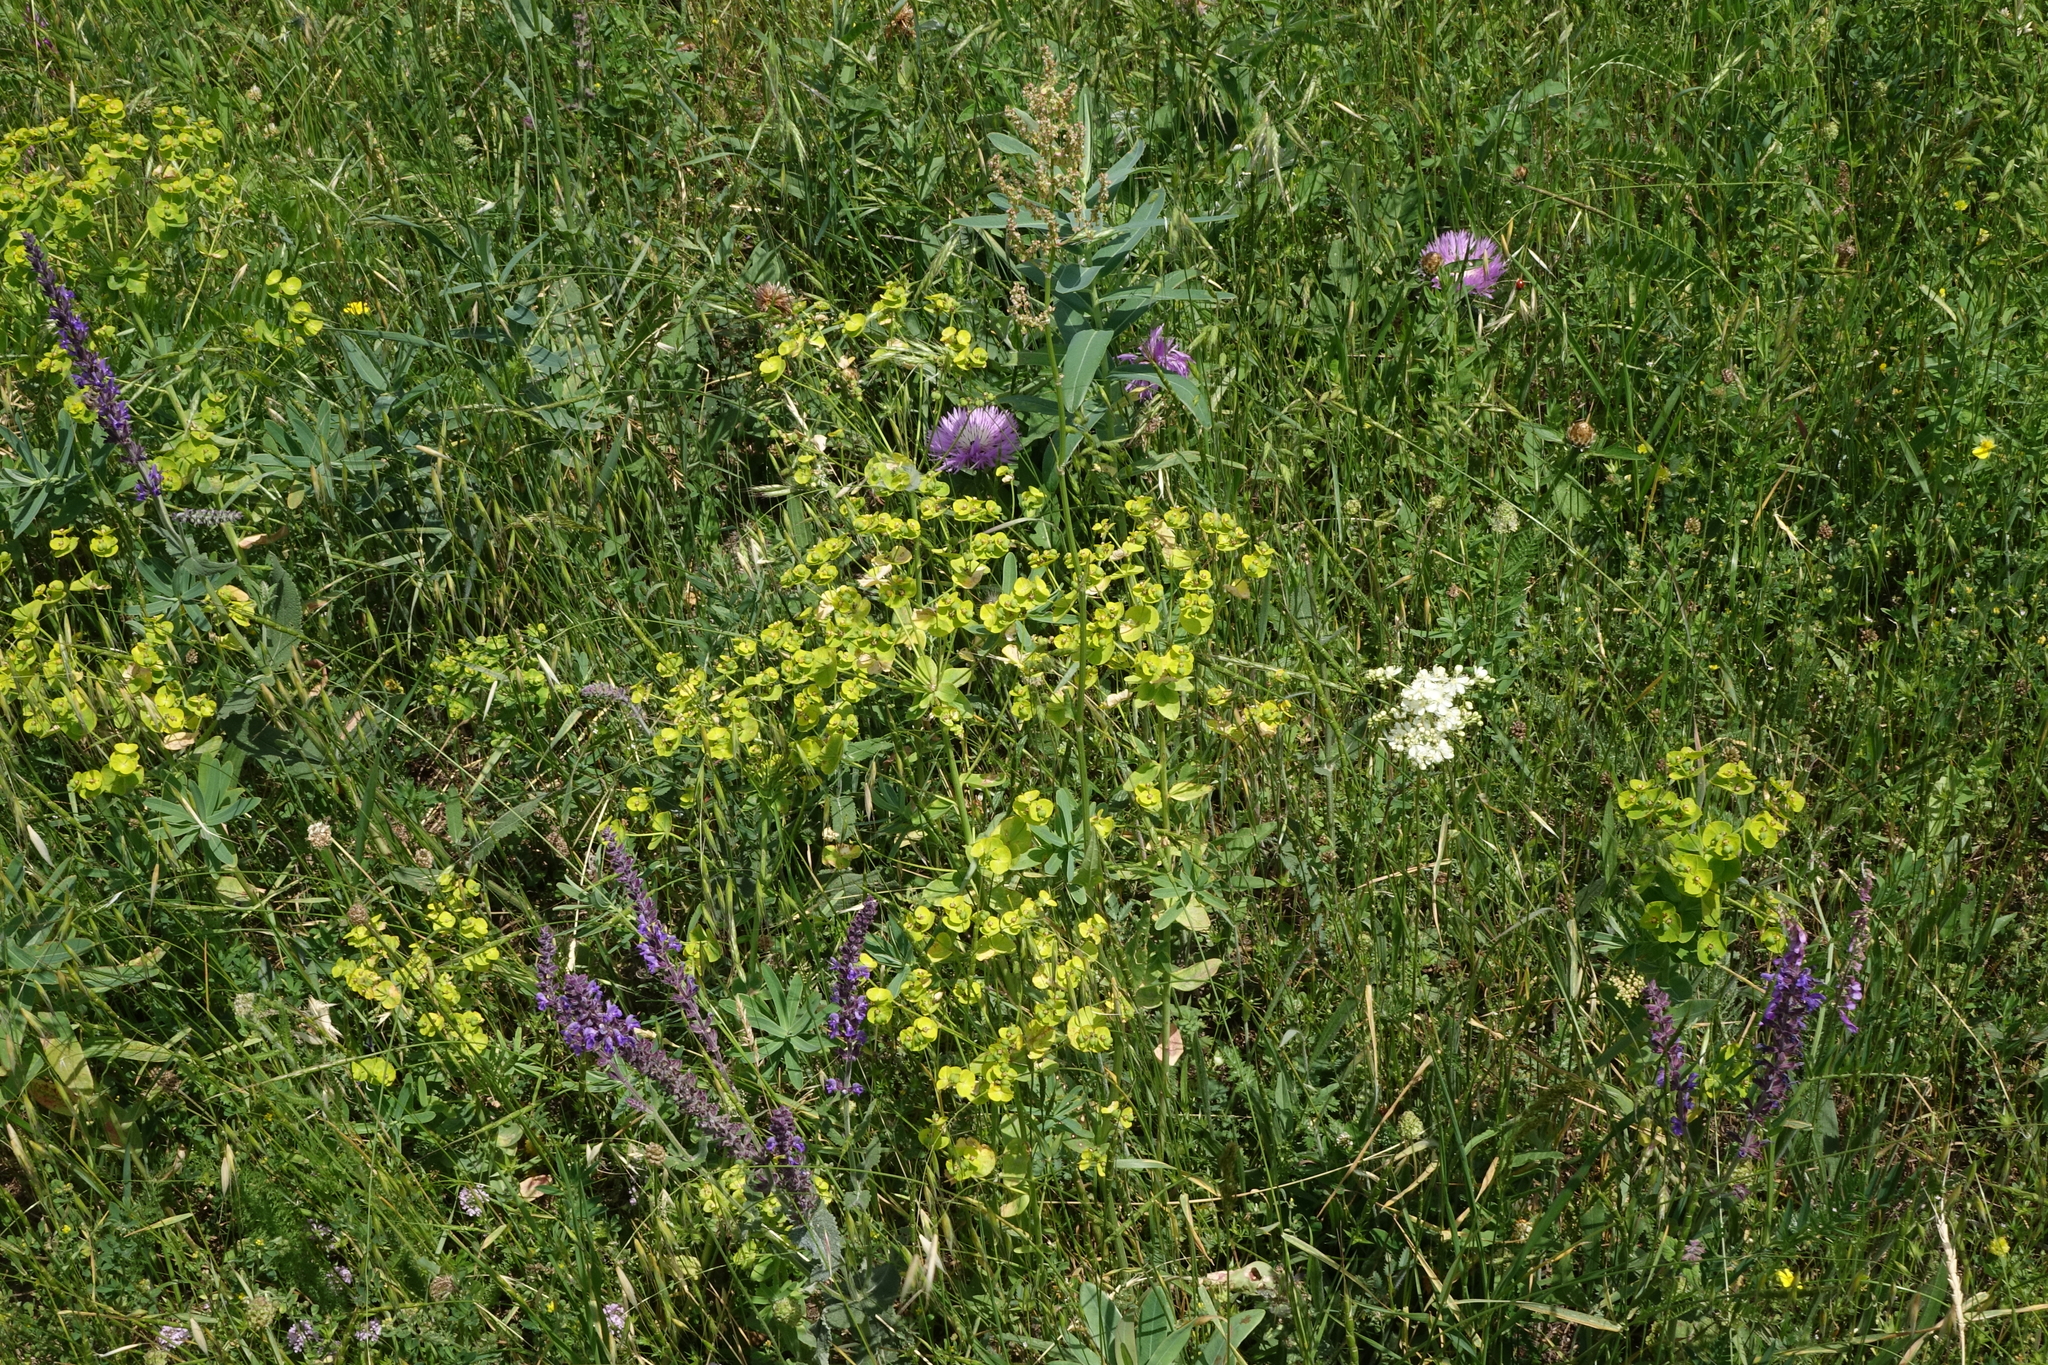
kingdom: Plantae
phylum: Tracheophyta
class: Magnoliopsida
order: Malpighiales
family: Euphorbiaceae
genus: Euphorbia
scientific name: Euphorbia iberica
